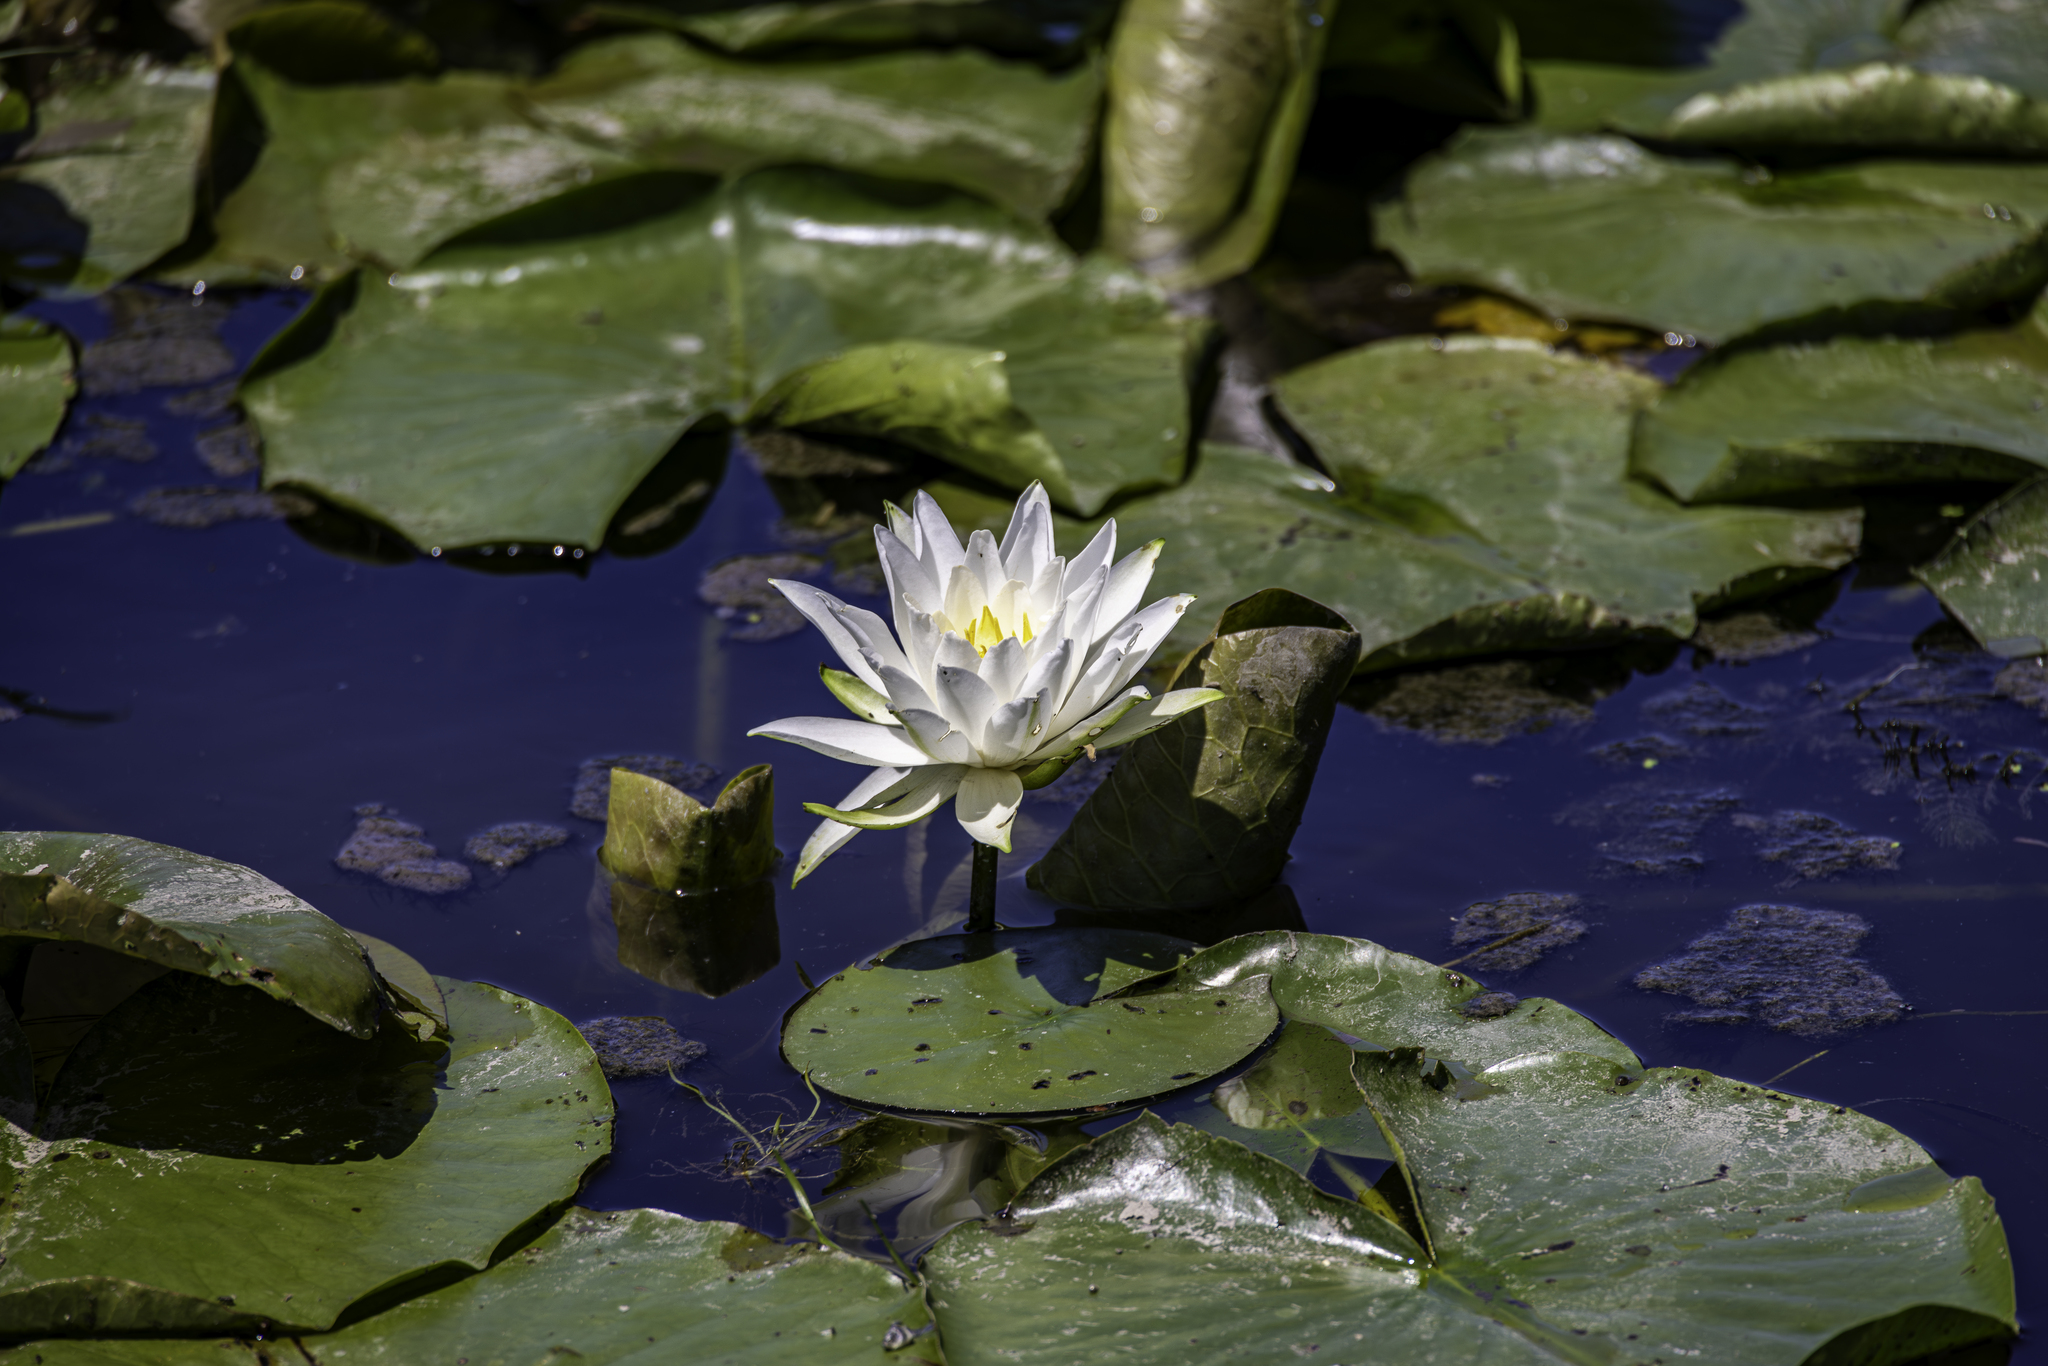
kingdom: Plantae
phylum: Tracheophyta
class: Magnoliopsida
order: Nymphaeales
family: Nymphaeaceae
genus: Nymphaea
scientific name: Nymphaea odorata
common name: Fragrant water-lily
